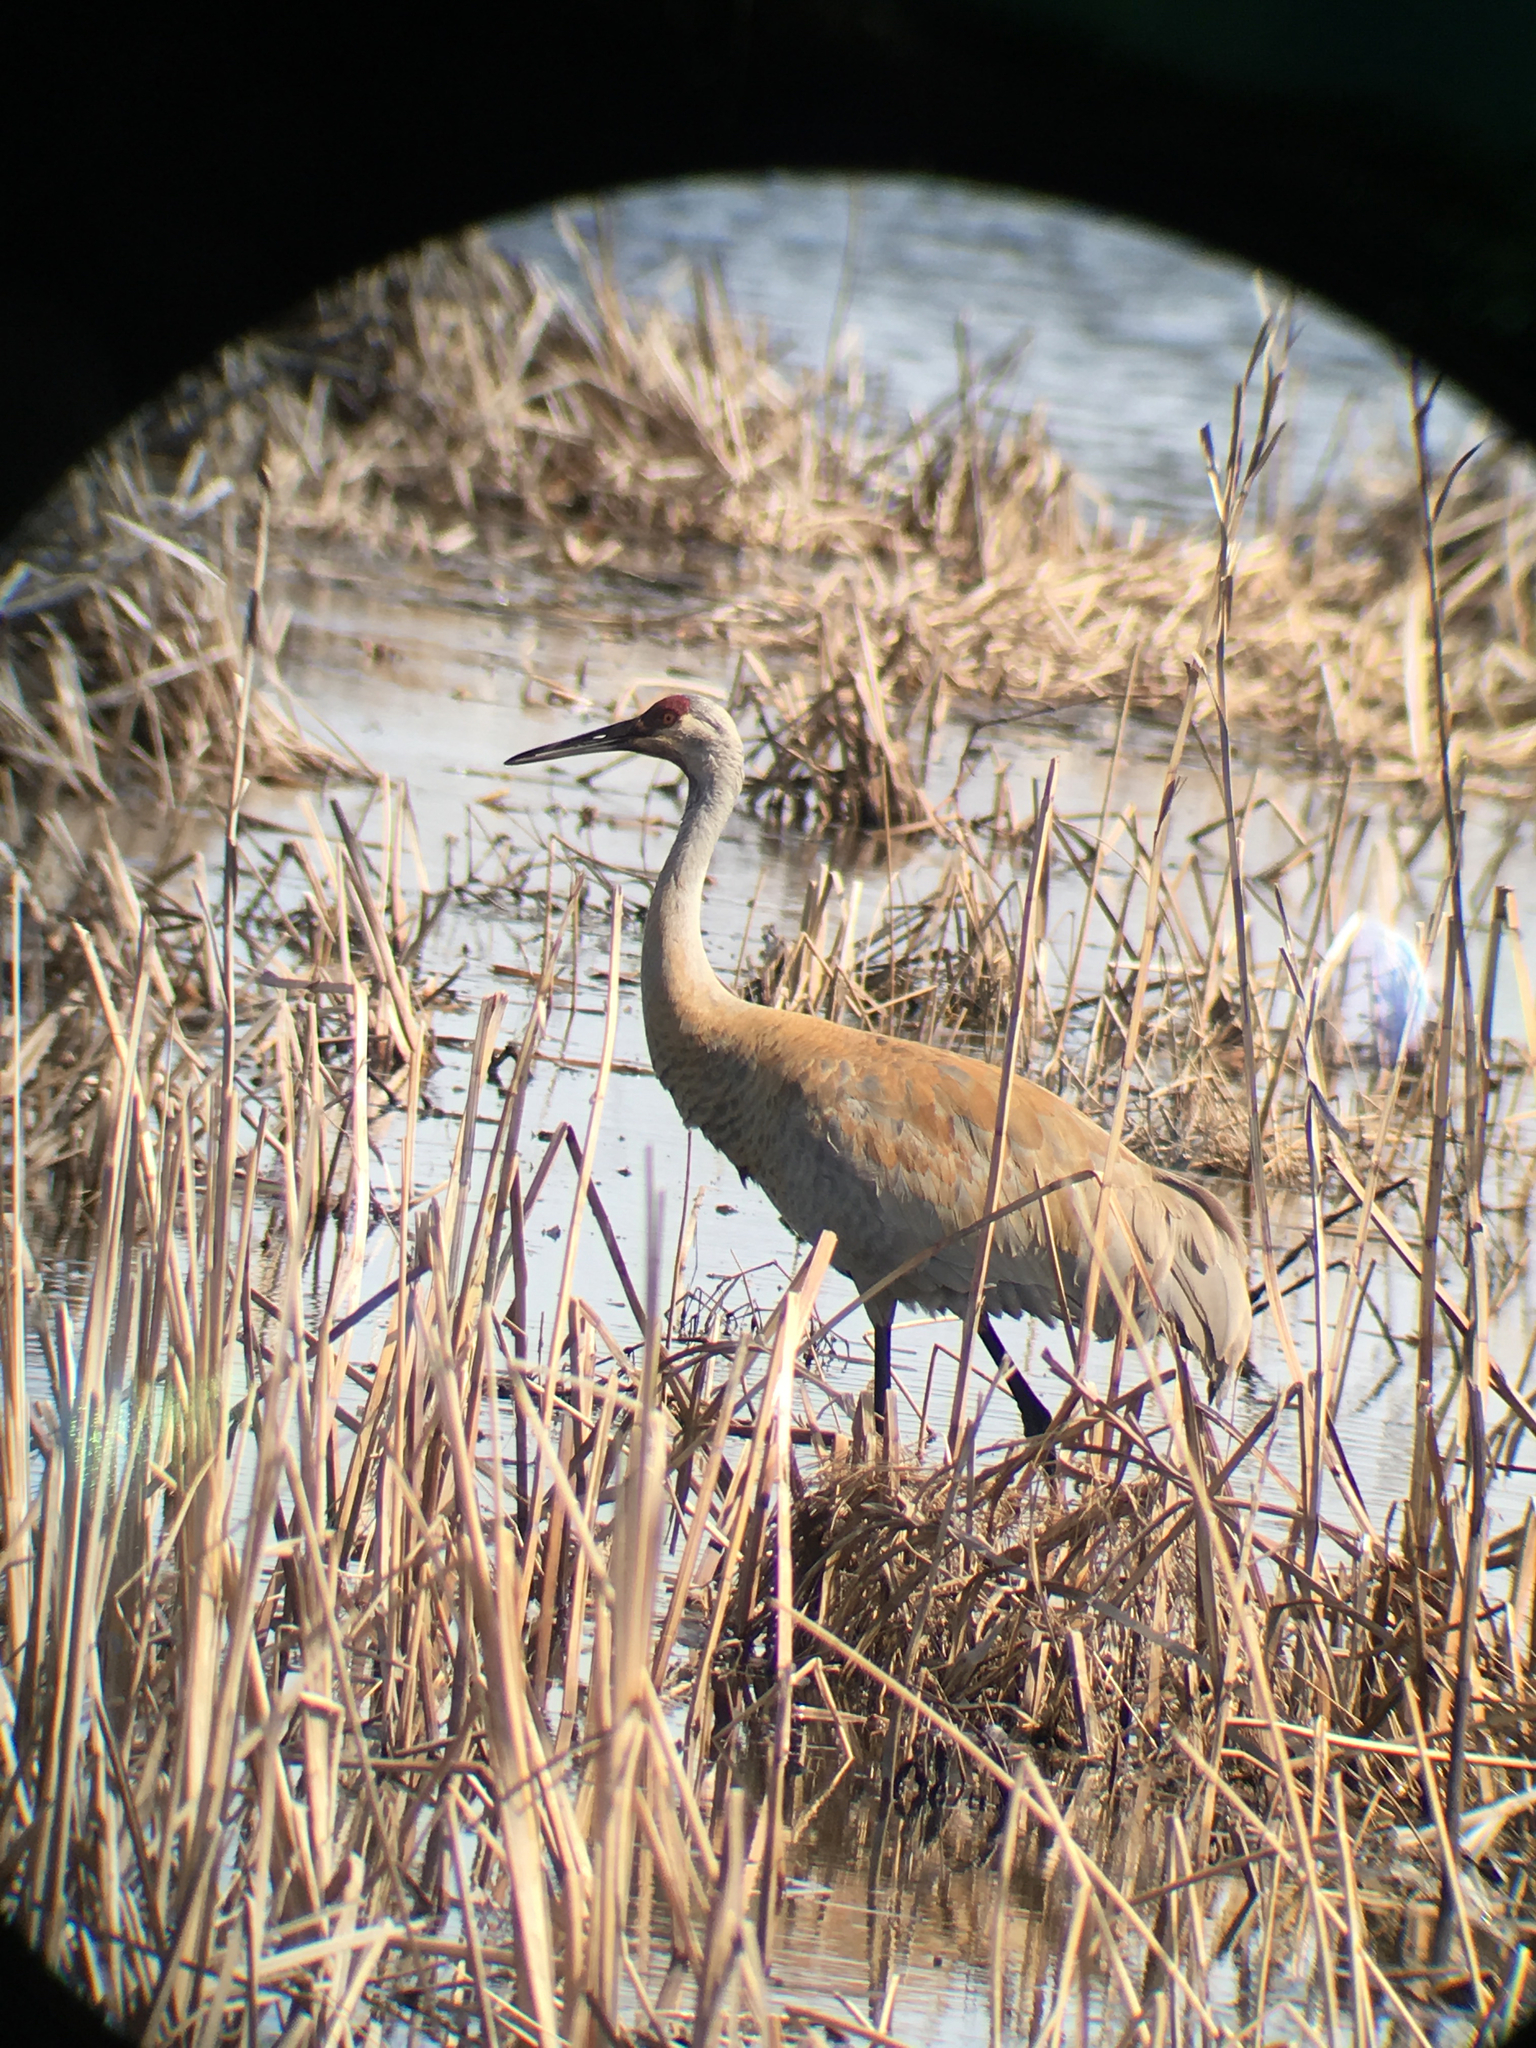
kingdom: Animalia
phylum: Chordata
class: Aves
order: Gruiformes
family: Gruidae
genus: Grus
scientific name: Grus canadensis
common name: Sandhill crane
